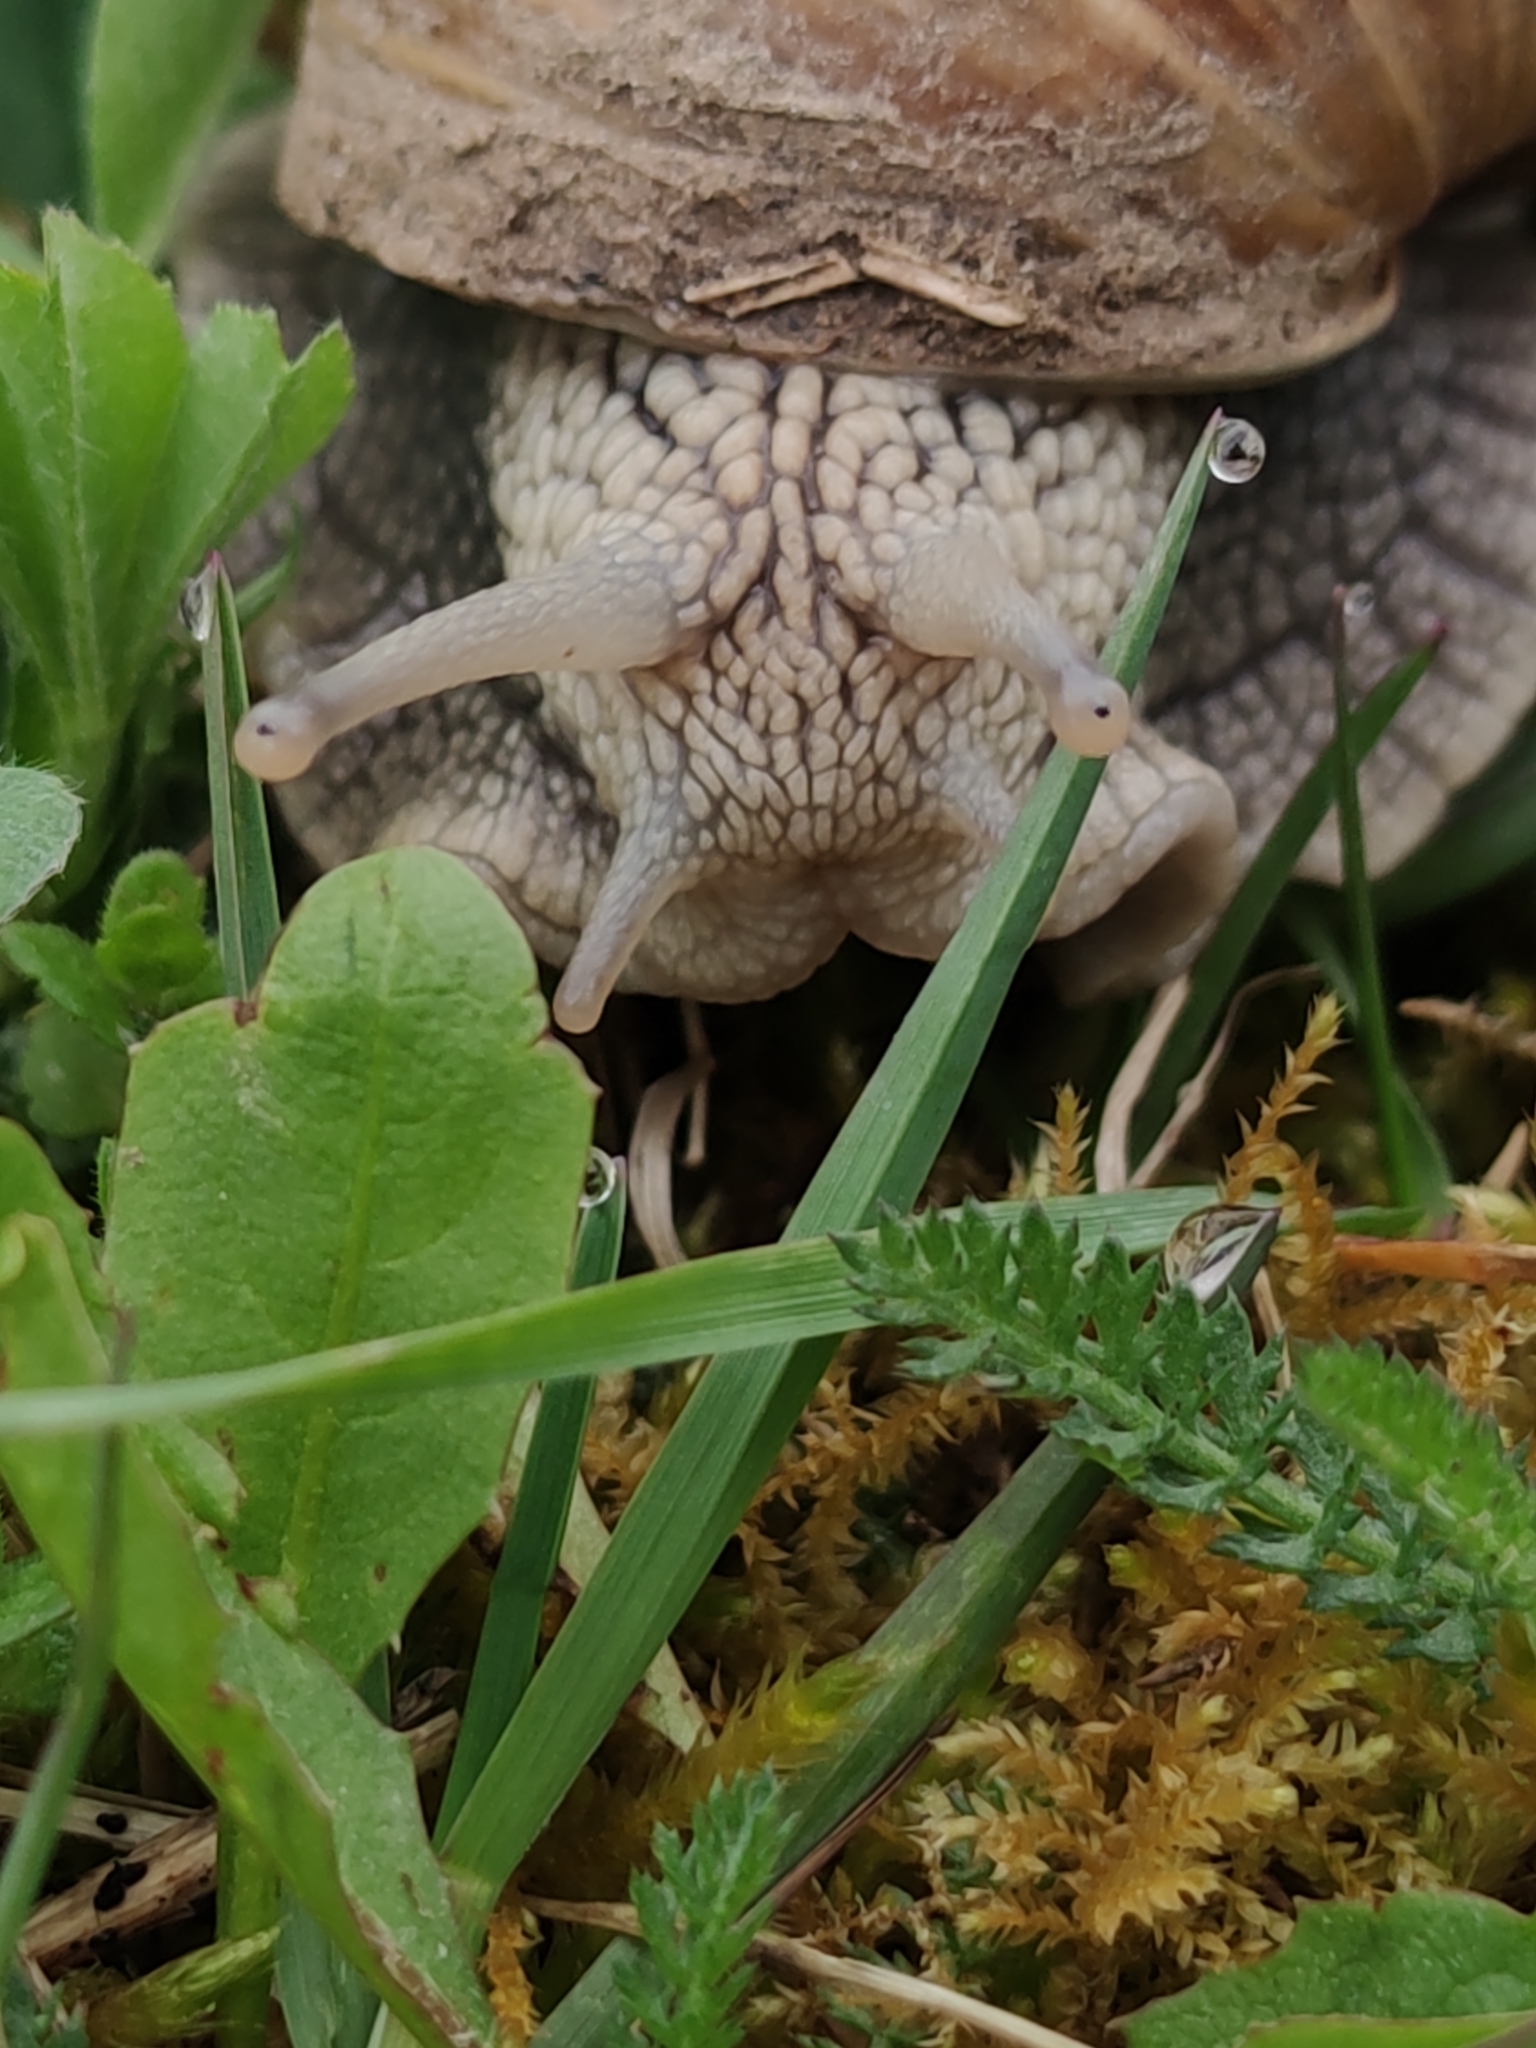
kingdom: Animalia
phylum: Mollusca
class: Gastropoda
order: Stylommatophora
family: Helicidae
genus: Helix
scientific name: Helix pomatia
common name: Roman snail
